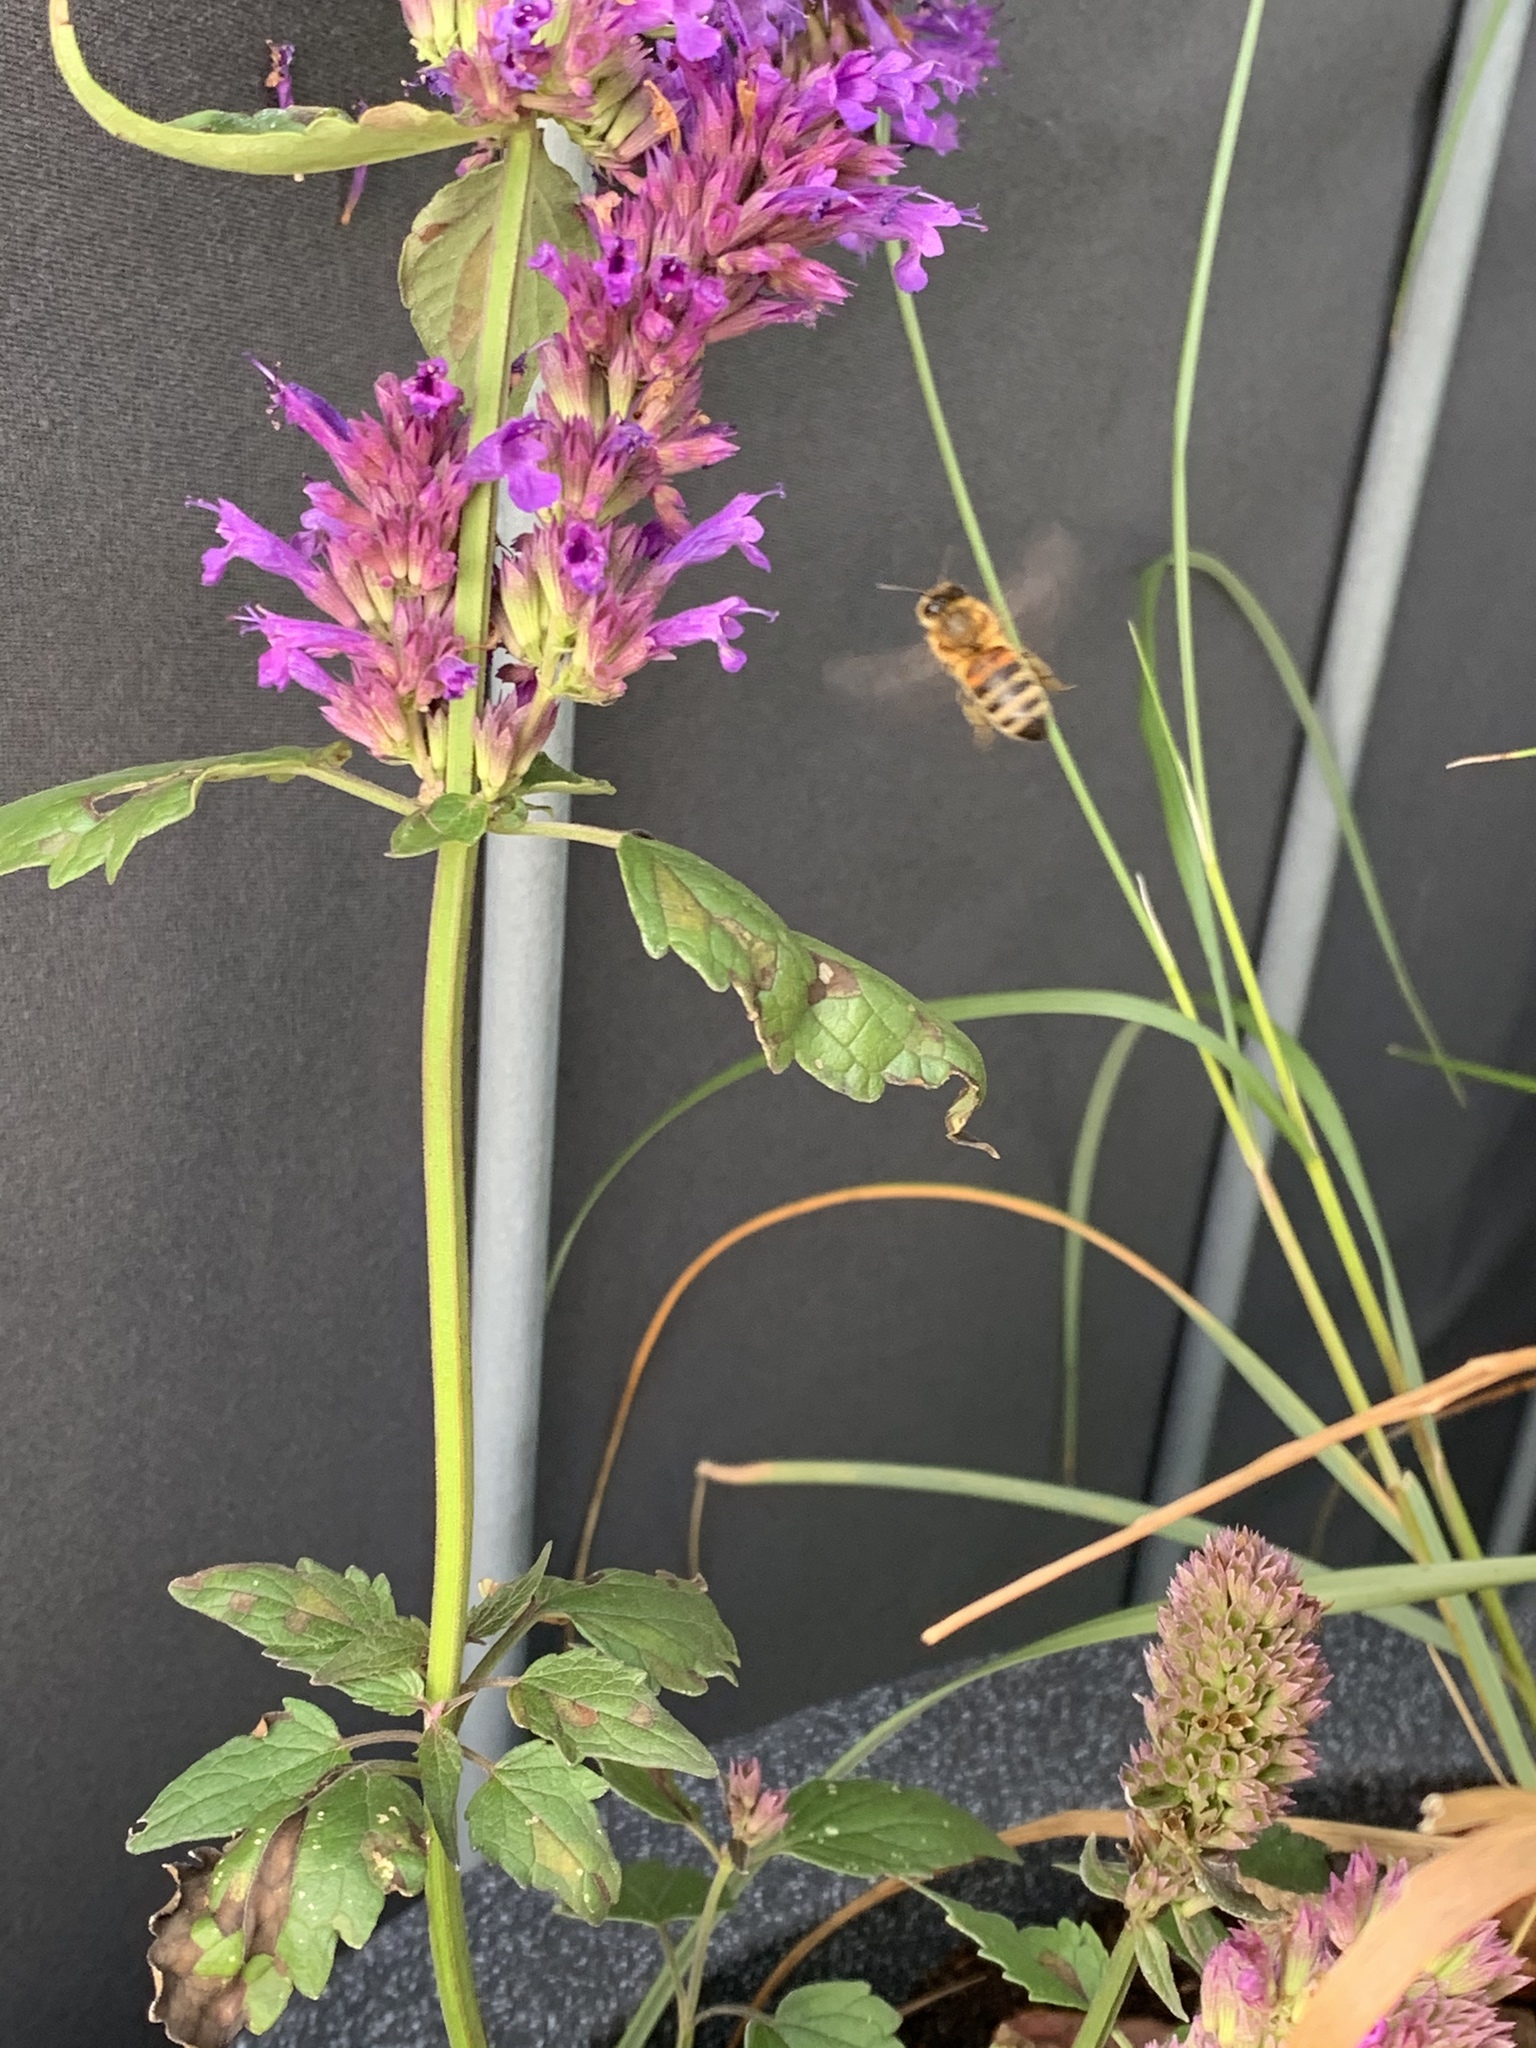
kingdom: Animalia
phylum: Arthropoda
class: Insecta
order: Hymenoptera
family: Apidae
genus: Apis
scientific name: Apis mellifera
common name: Honey bee
